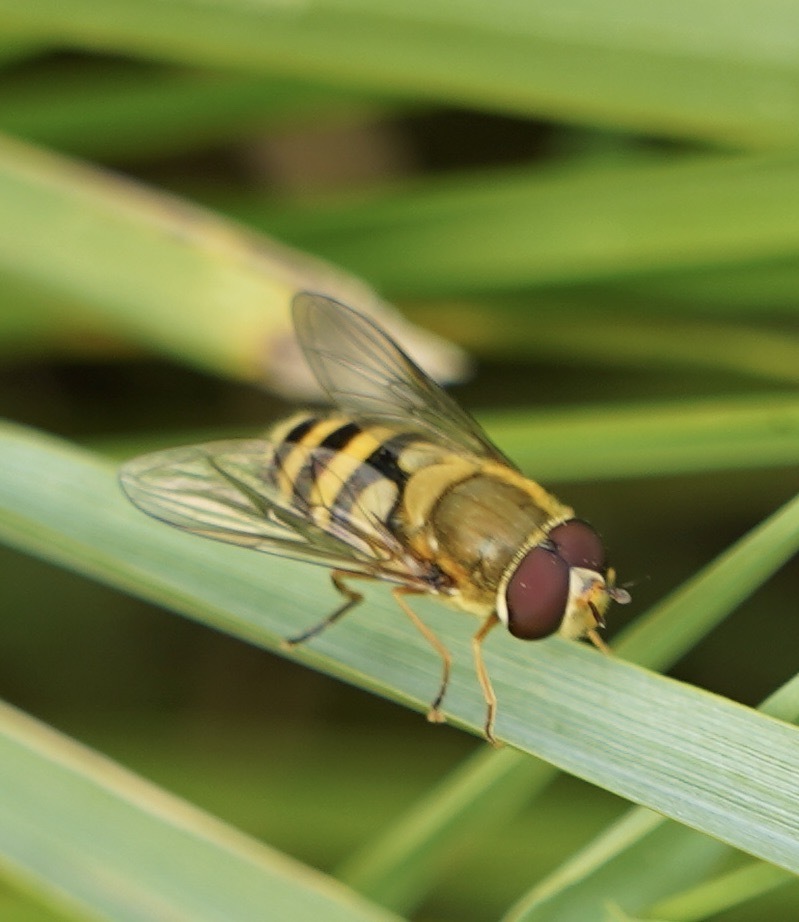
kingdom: Animalia
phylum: Arthropoda
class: Insecta
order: Diptera
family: Syrphidae
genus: Syrphus
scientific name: Syrphus
